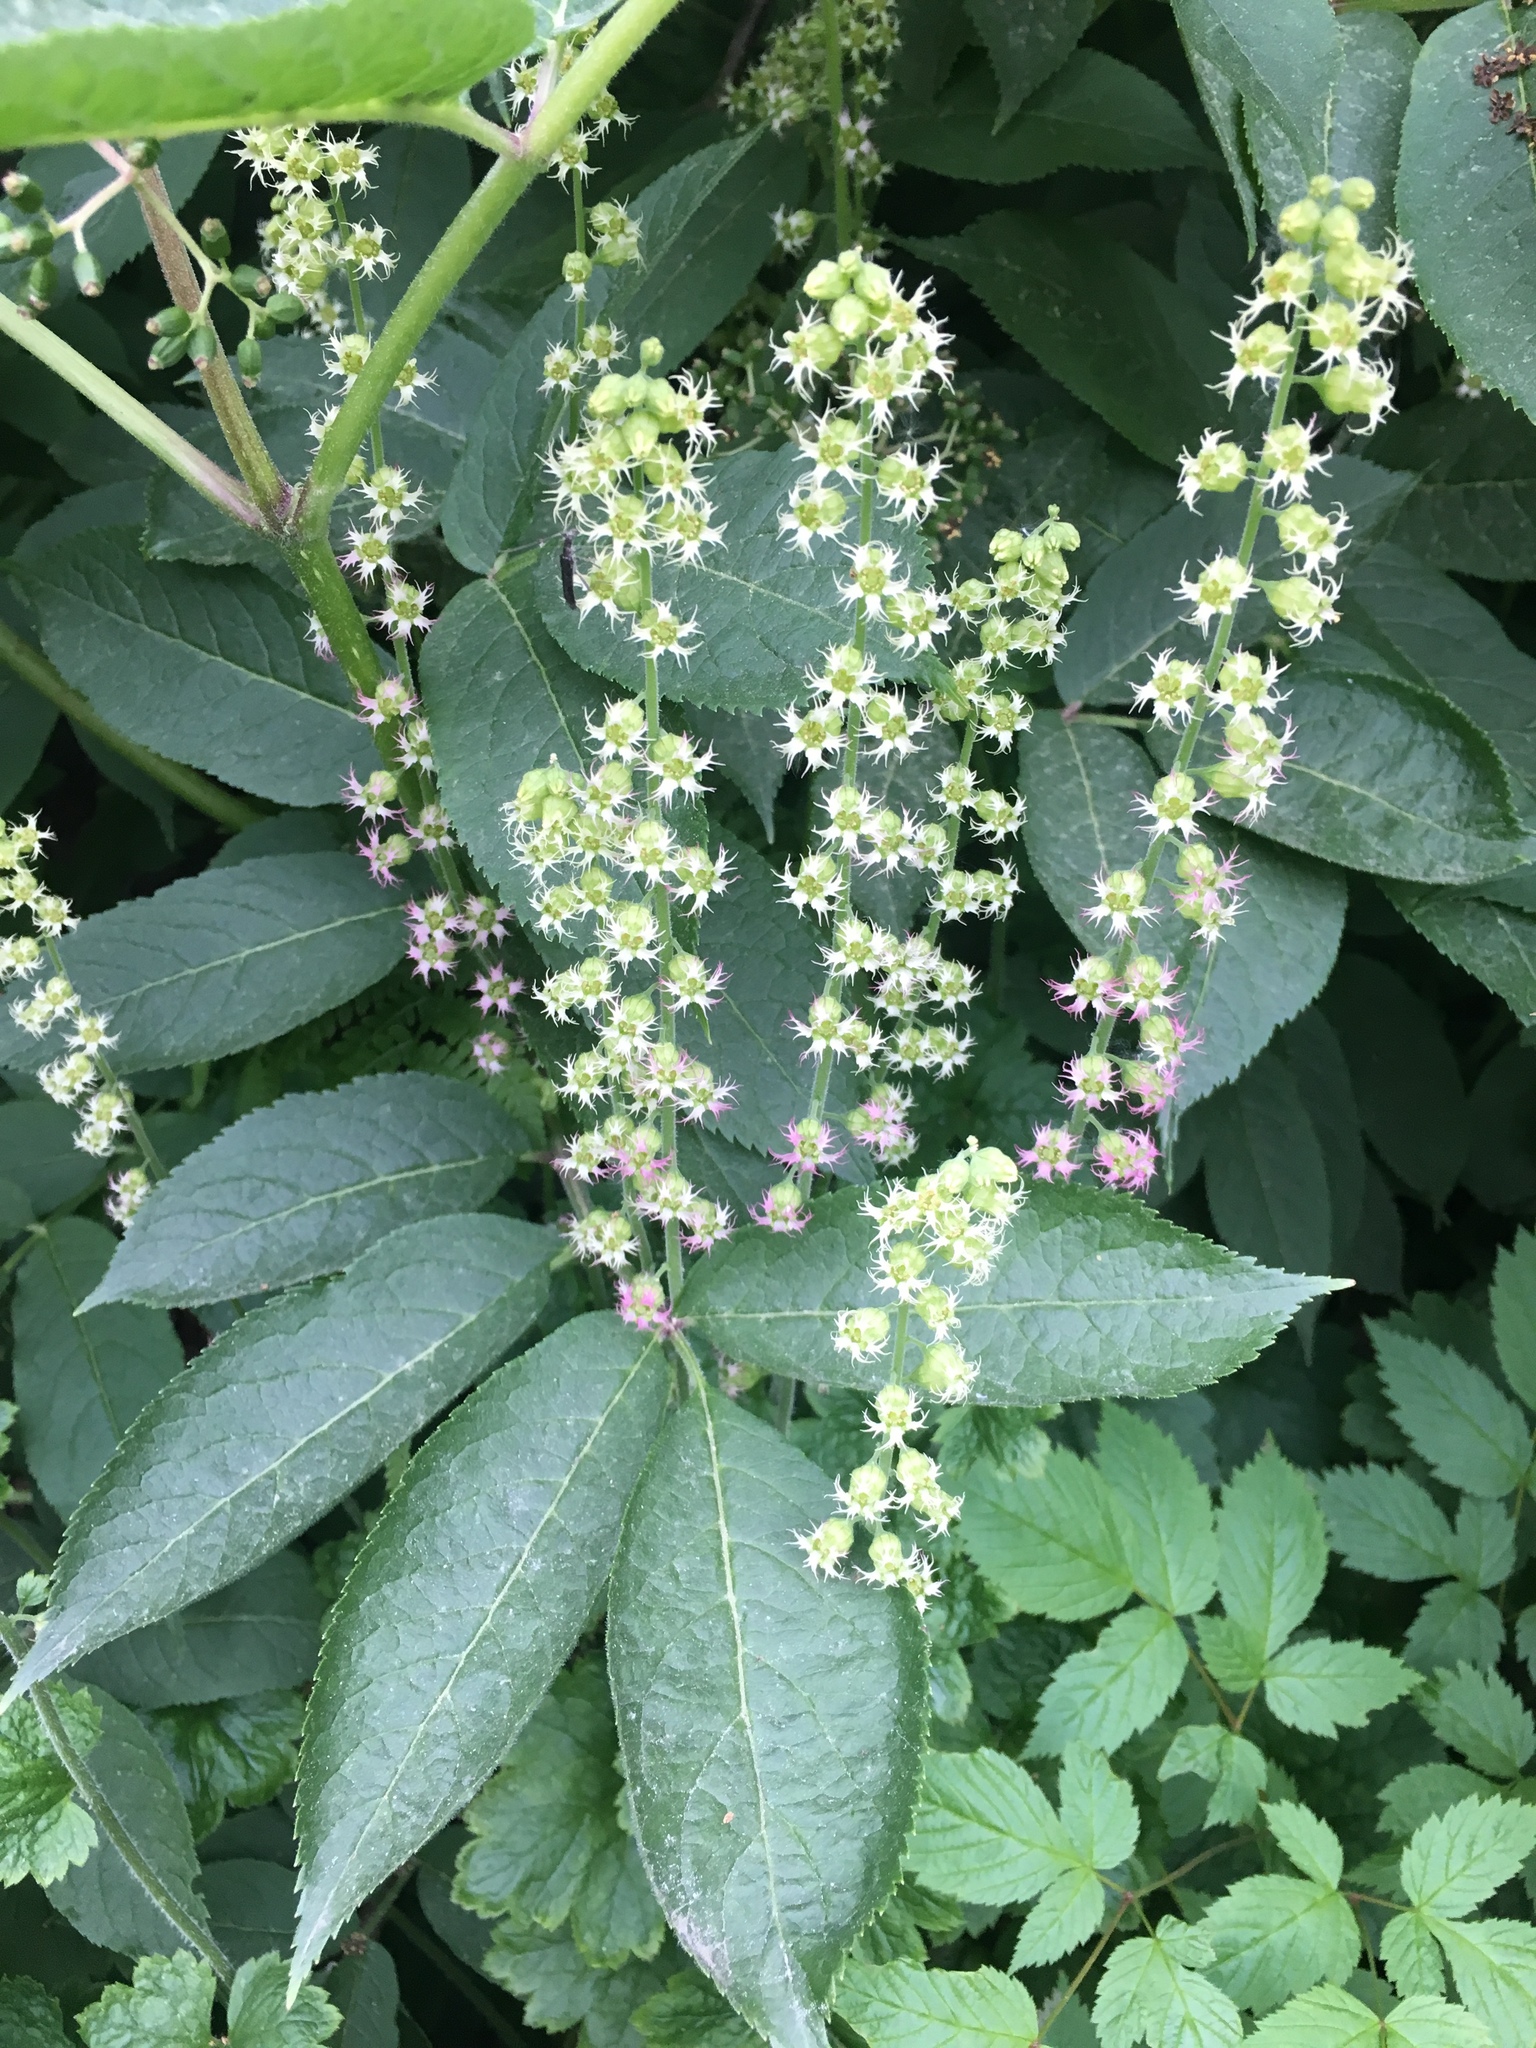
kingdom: Plantae
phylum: Tracheophyta
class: Magnoliopsida
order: Saxifragales
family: Saxifragaceae
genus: Tellima
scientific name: Tellima grandiflora
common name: Fringecups
